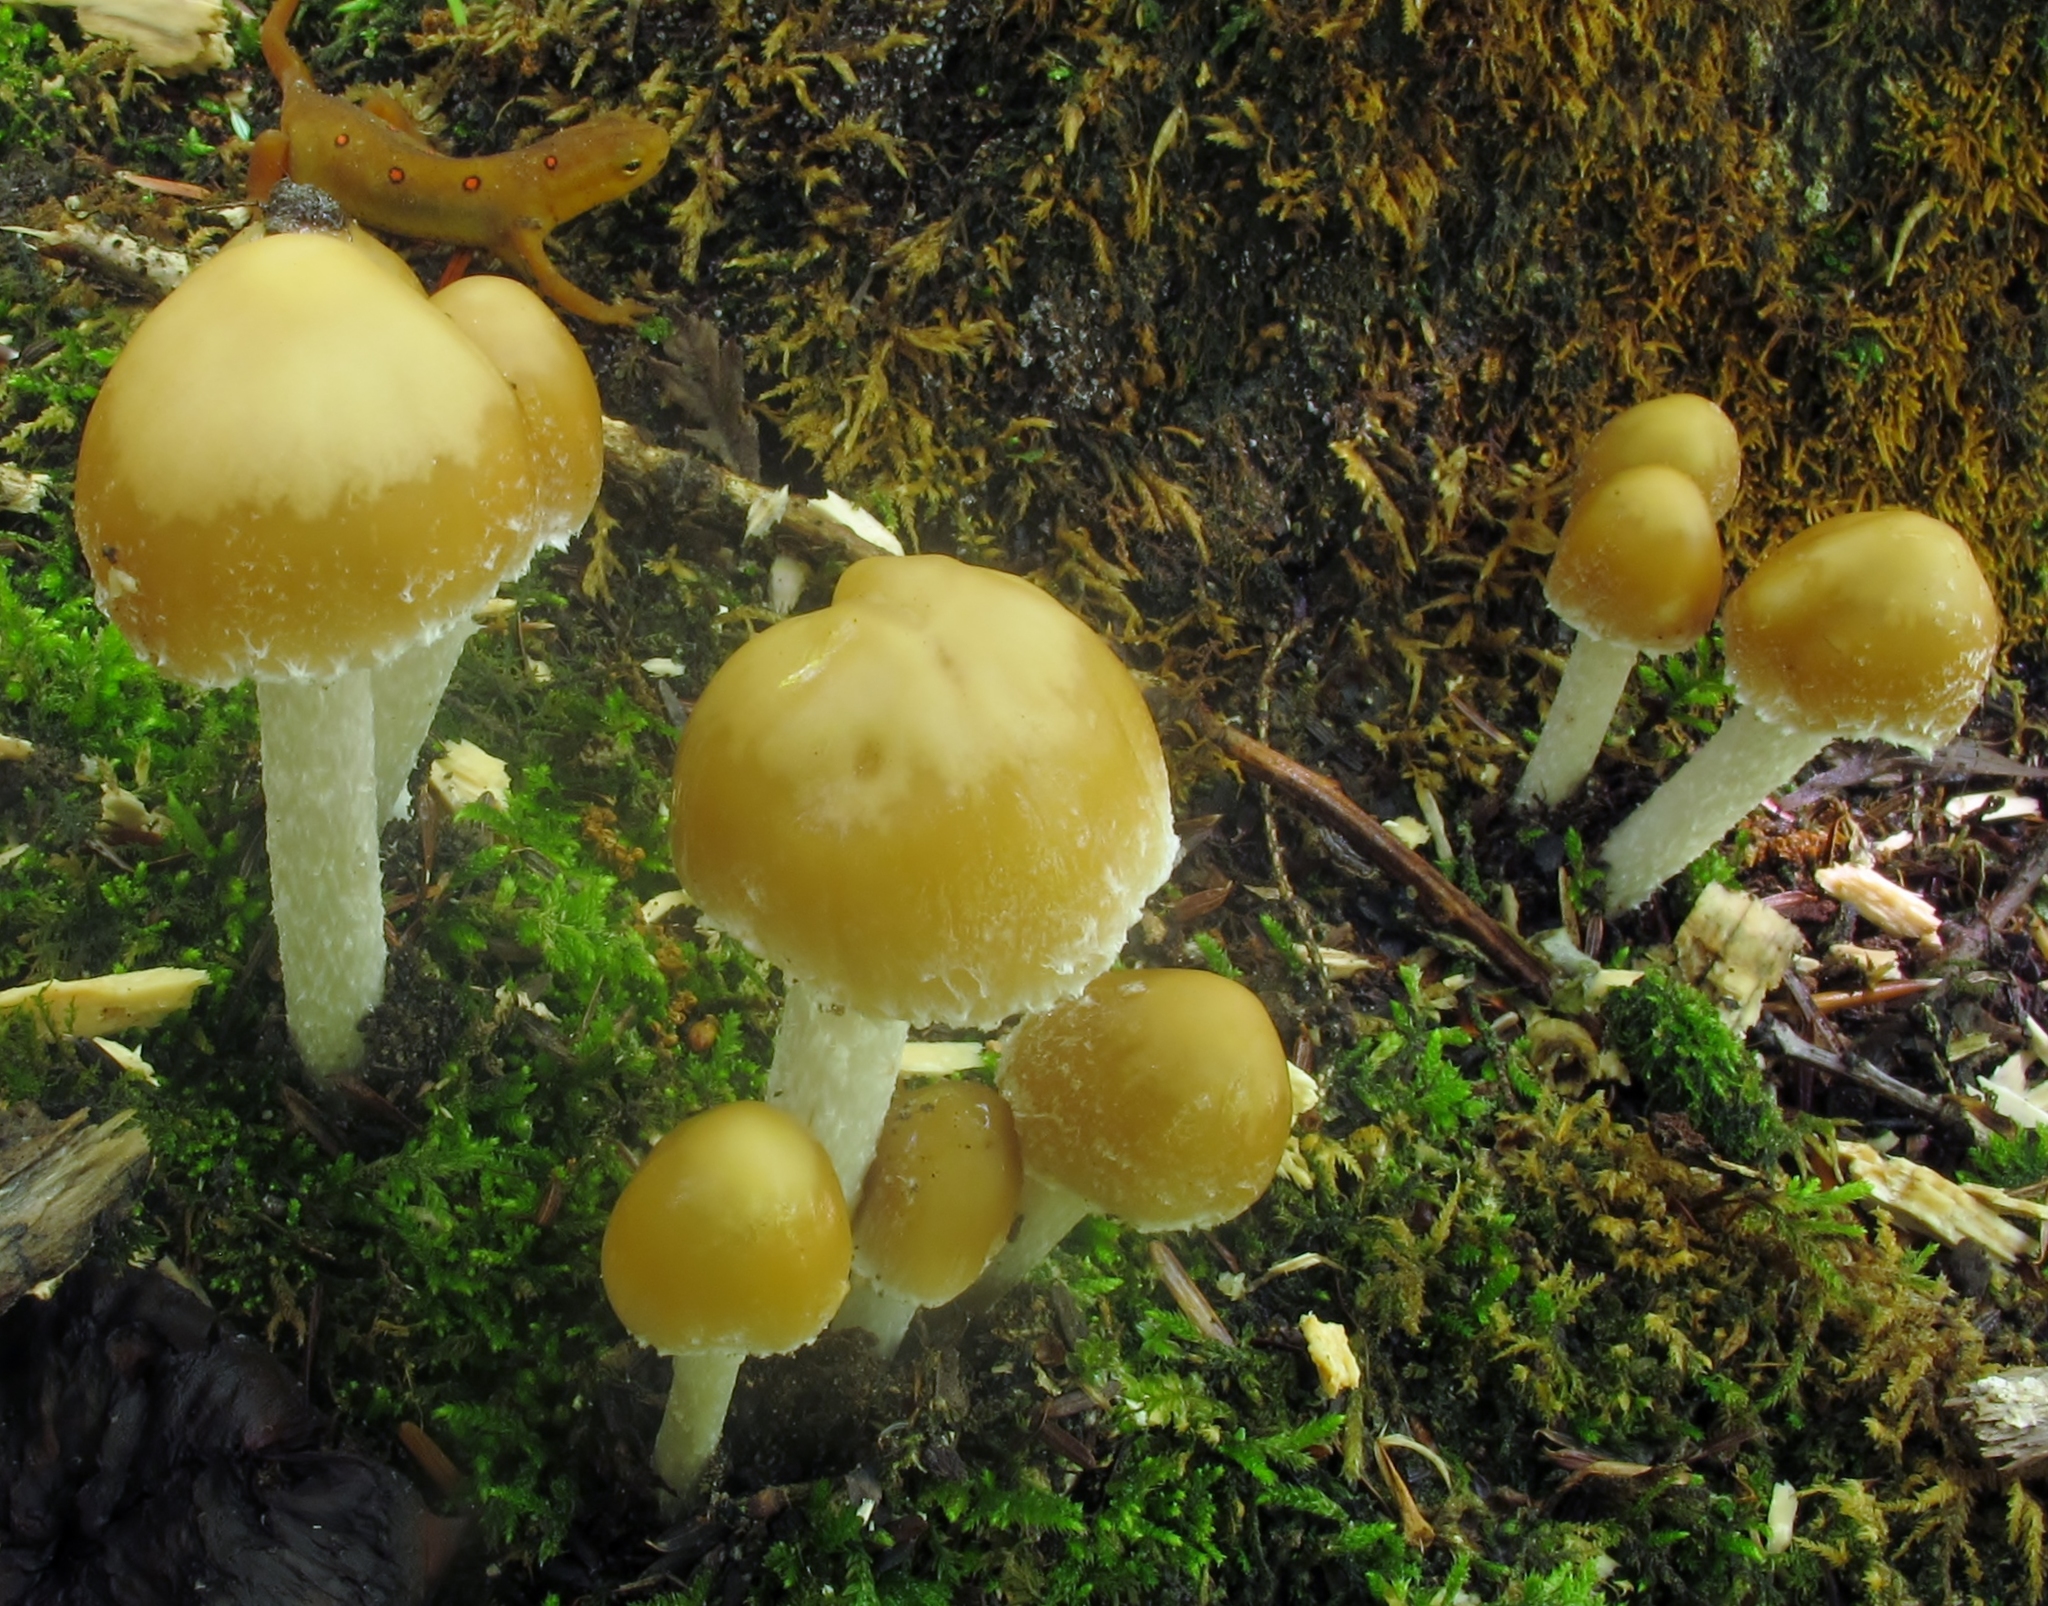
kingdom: Fungi
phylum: Basidiomycota
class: Agaricomycetes
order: Agaricales
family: Psathyrellaceae
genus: Candolleomyces
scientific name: Candolleomyces candolleanus
